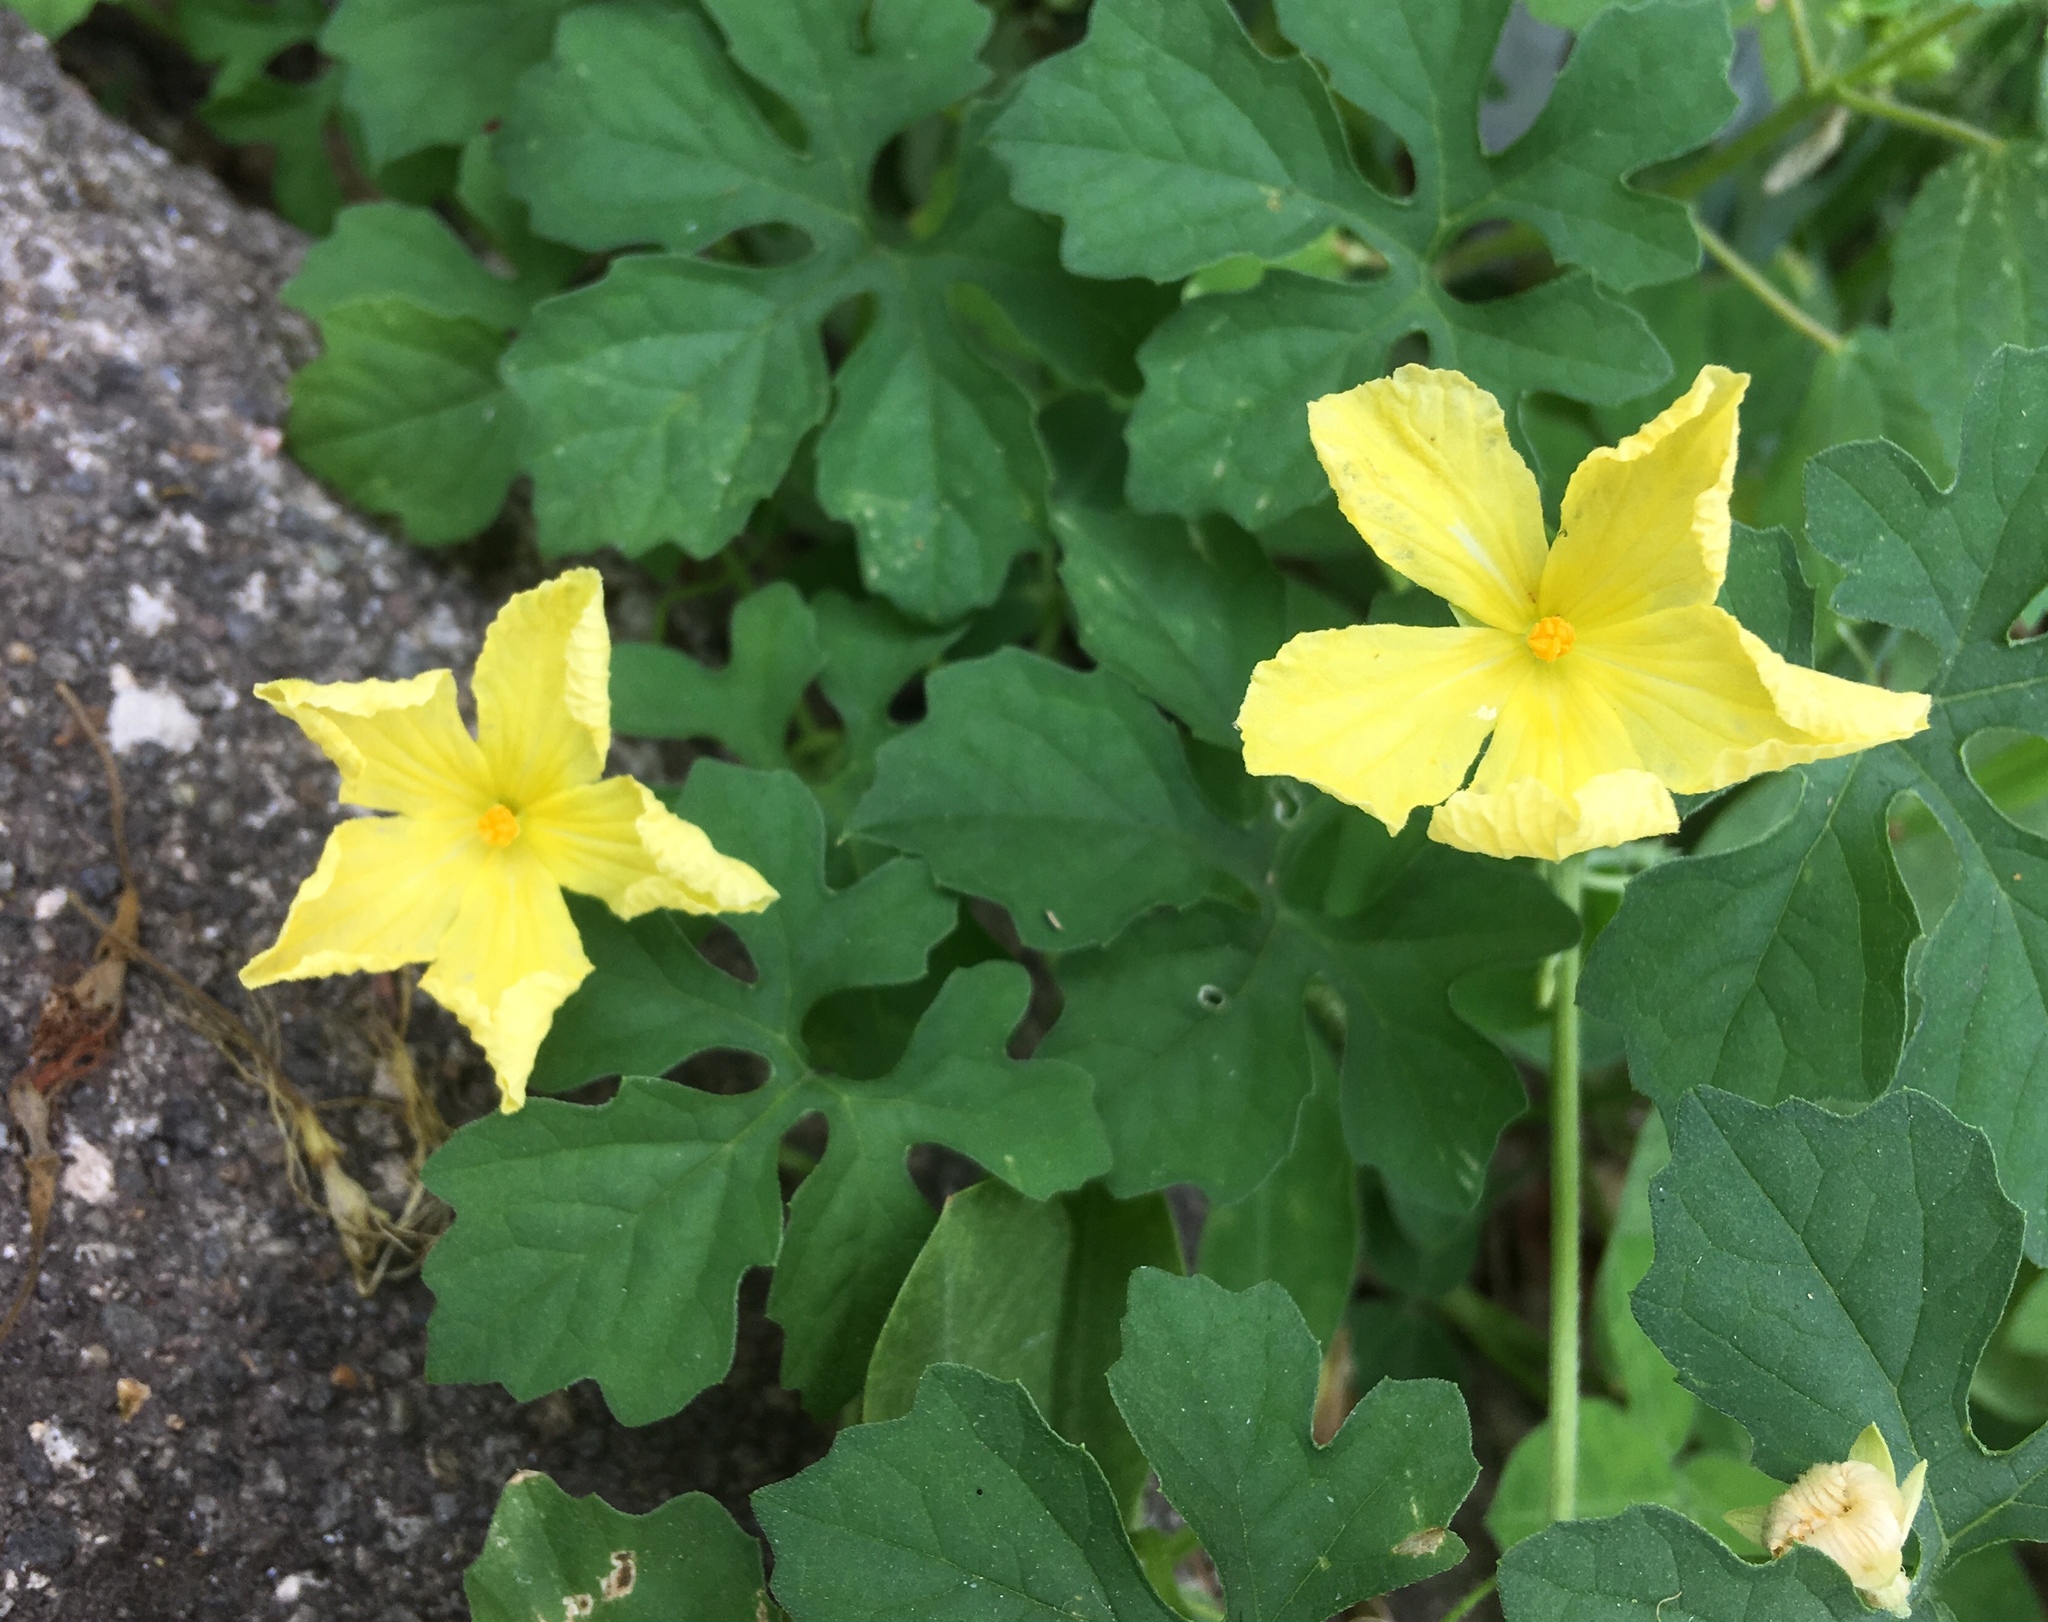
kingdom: Plantae
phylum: Tracheophyta
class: Magnoliopsida
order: Cucurbitales
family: Cucurbitaceae
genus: Momordica
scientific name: Momordica charantia
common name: Balsampear
